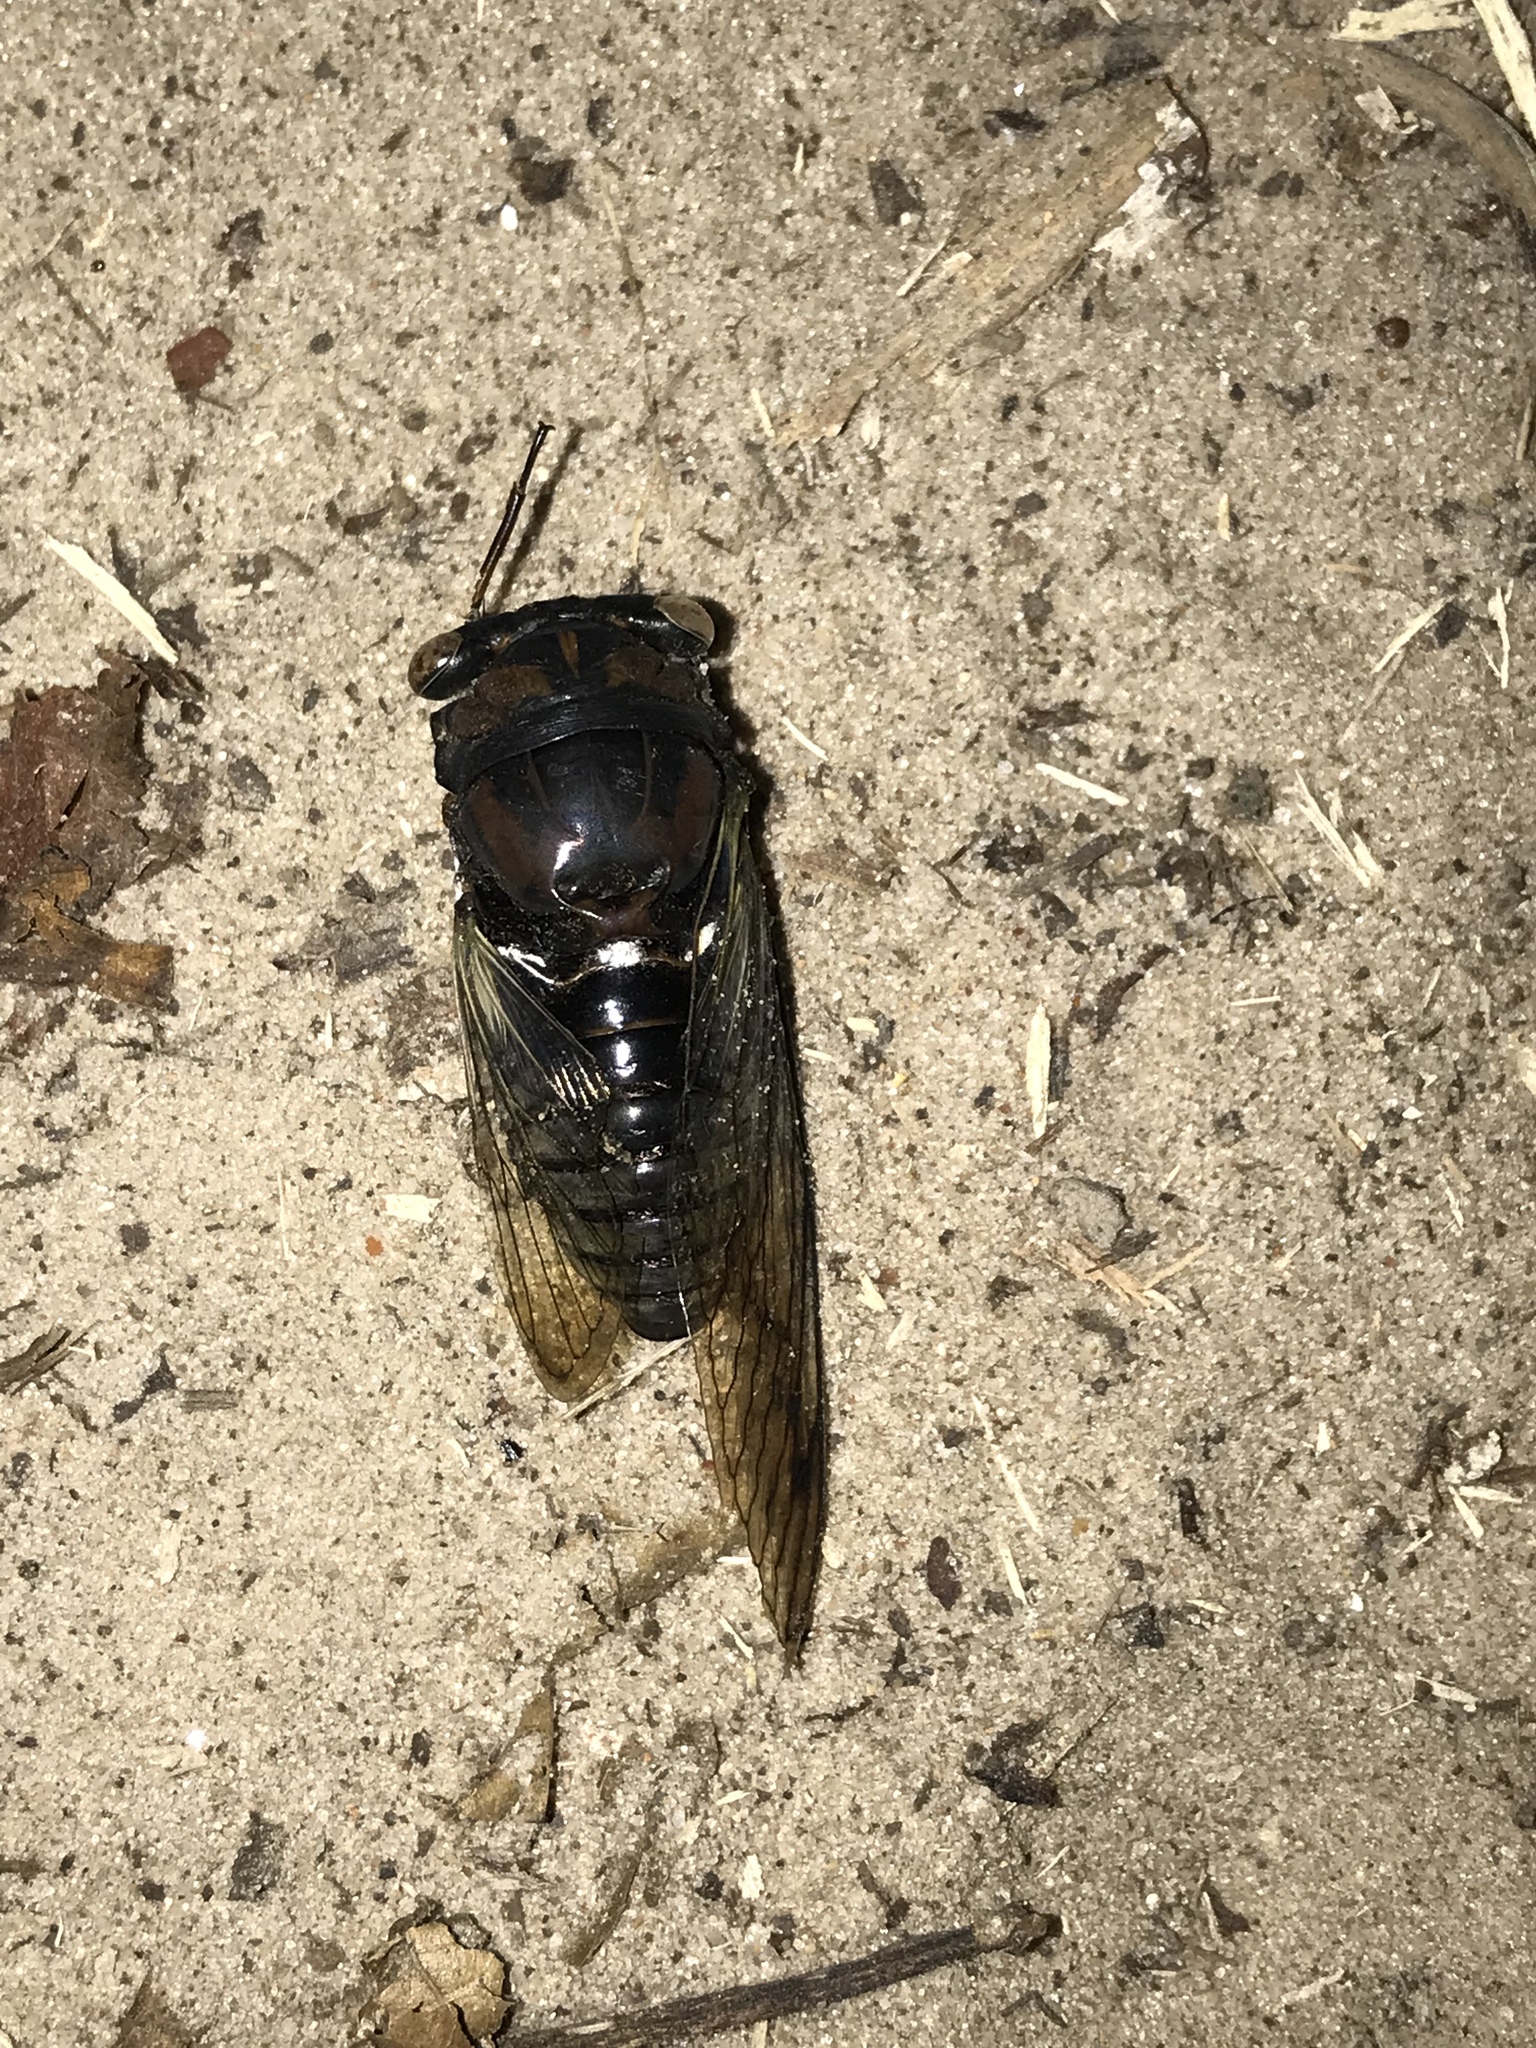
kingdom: Animalia
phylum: Arthropoda
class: Insecta
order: Hemiptera
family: Cicadidae
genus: Neotibicen
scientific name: Neotibicen lyricen
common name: Lyric cicada
